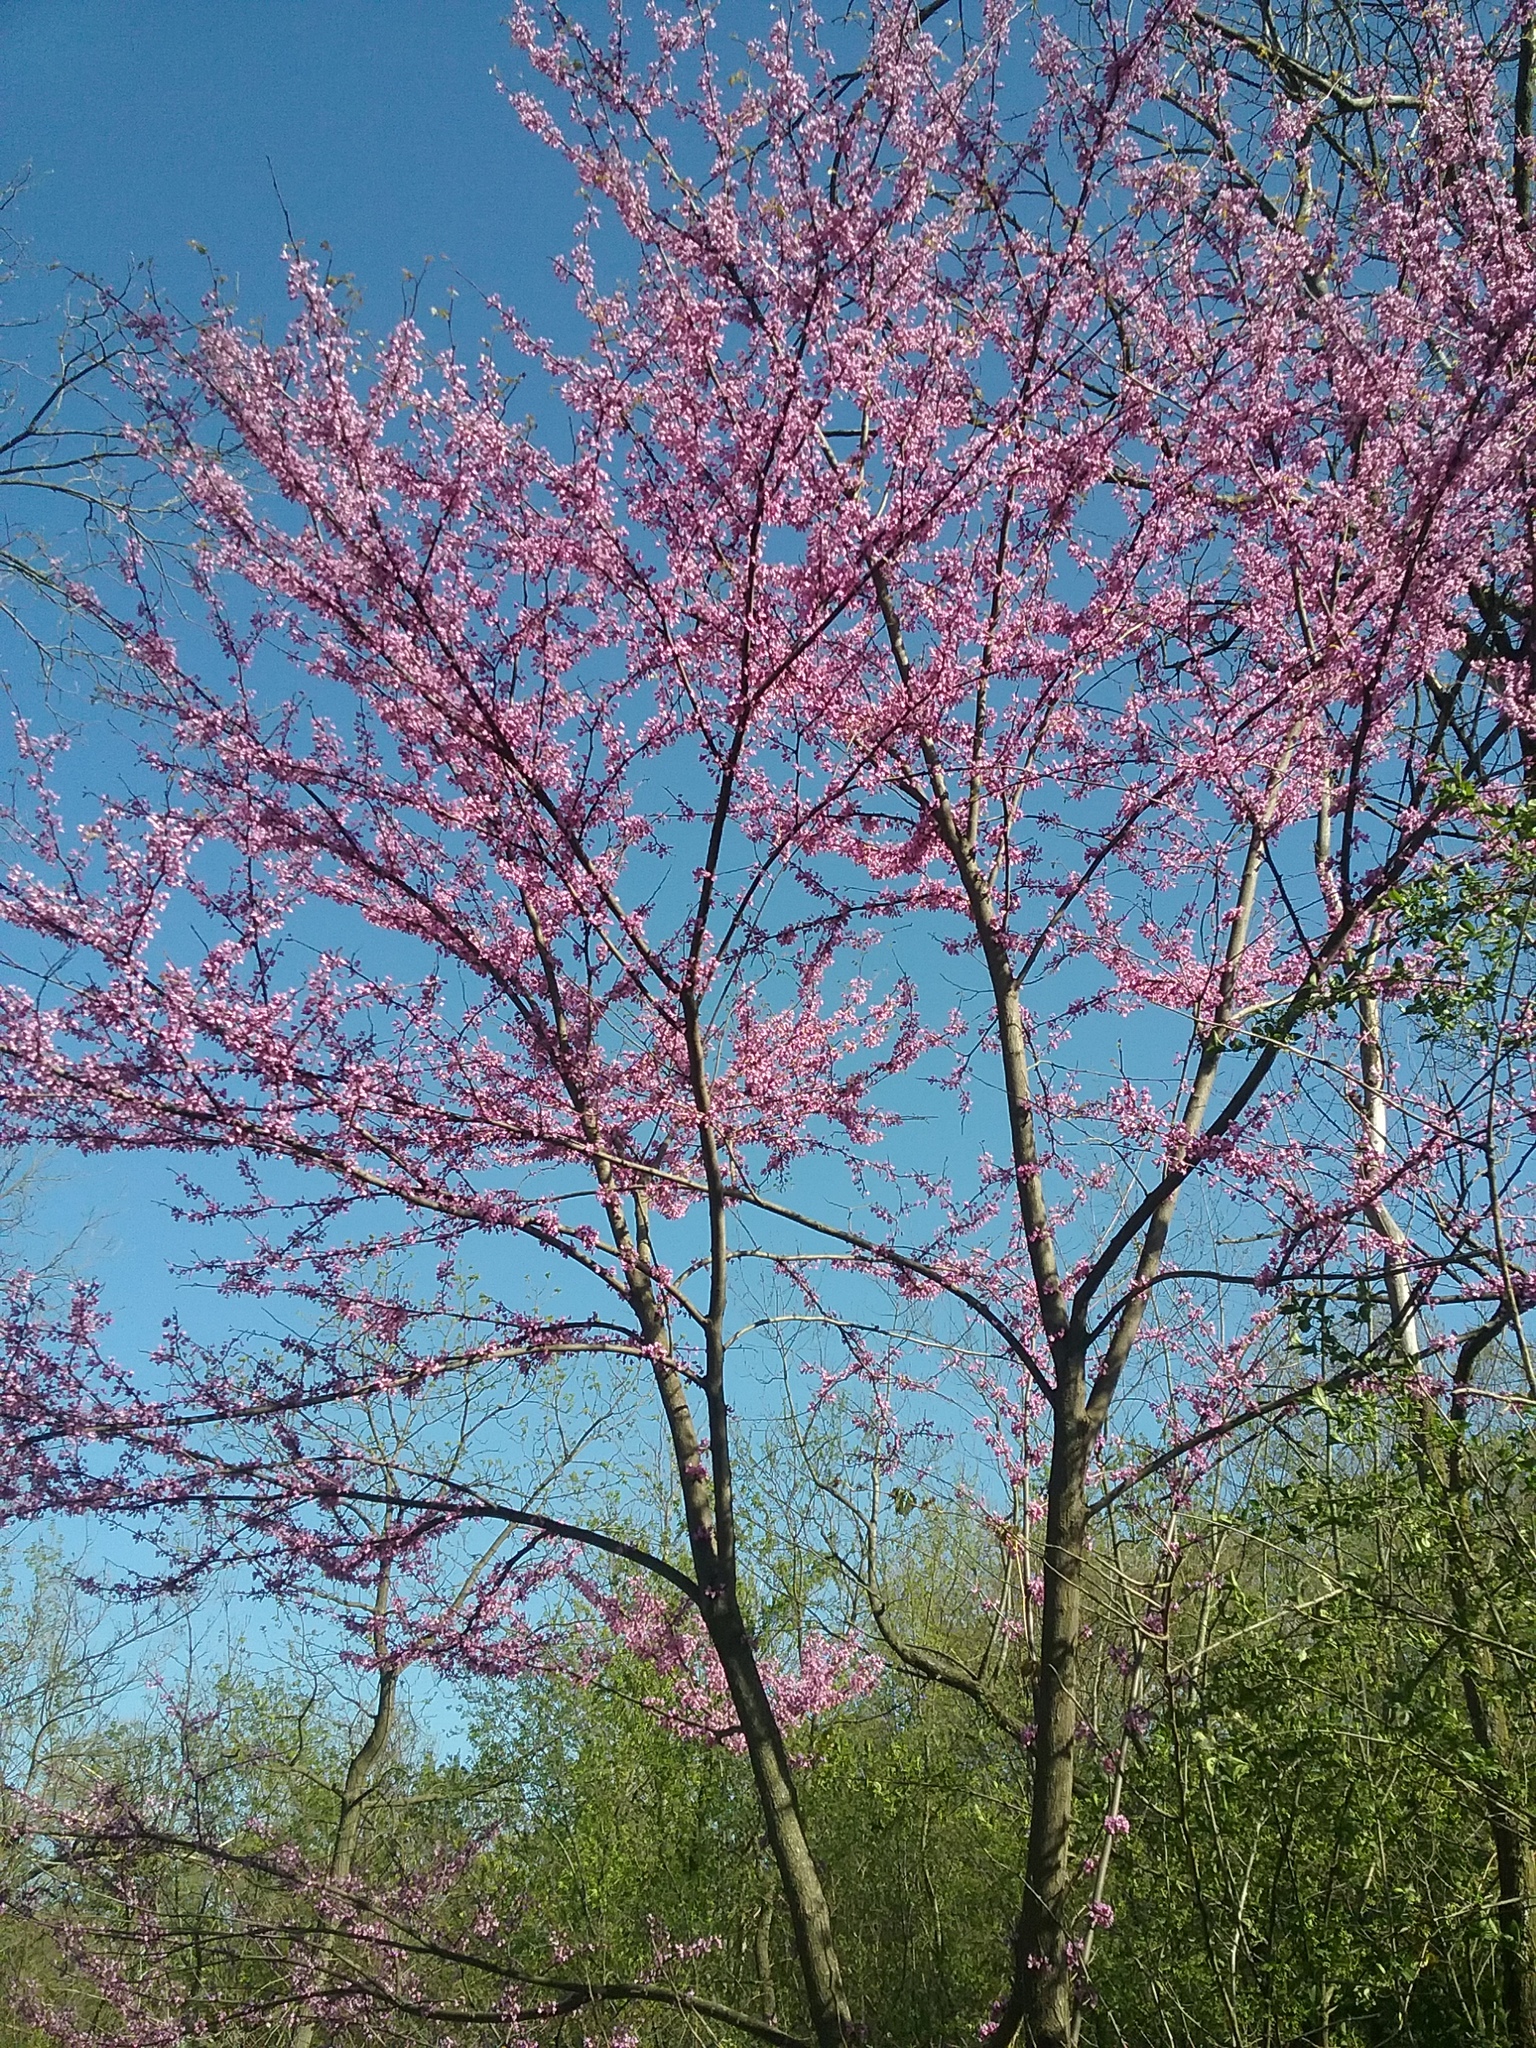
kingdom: Plantae
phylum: Tracheophyta
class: Magnoliopsida
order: Fabales
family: Fabaceae
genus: Cercis
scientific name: Cercis canadensis
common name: Eastern redbud
